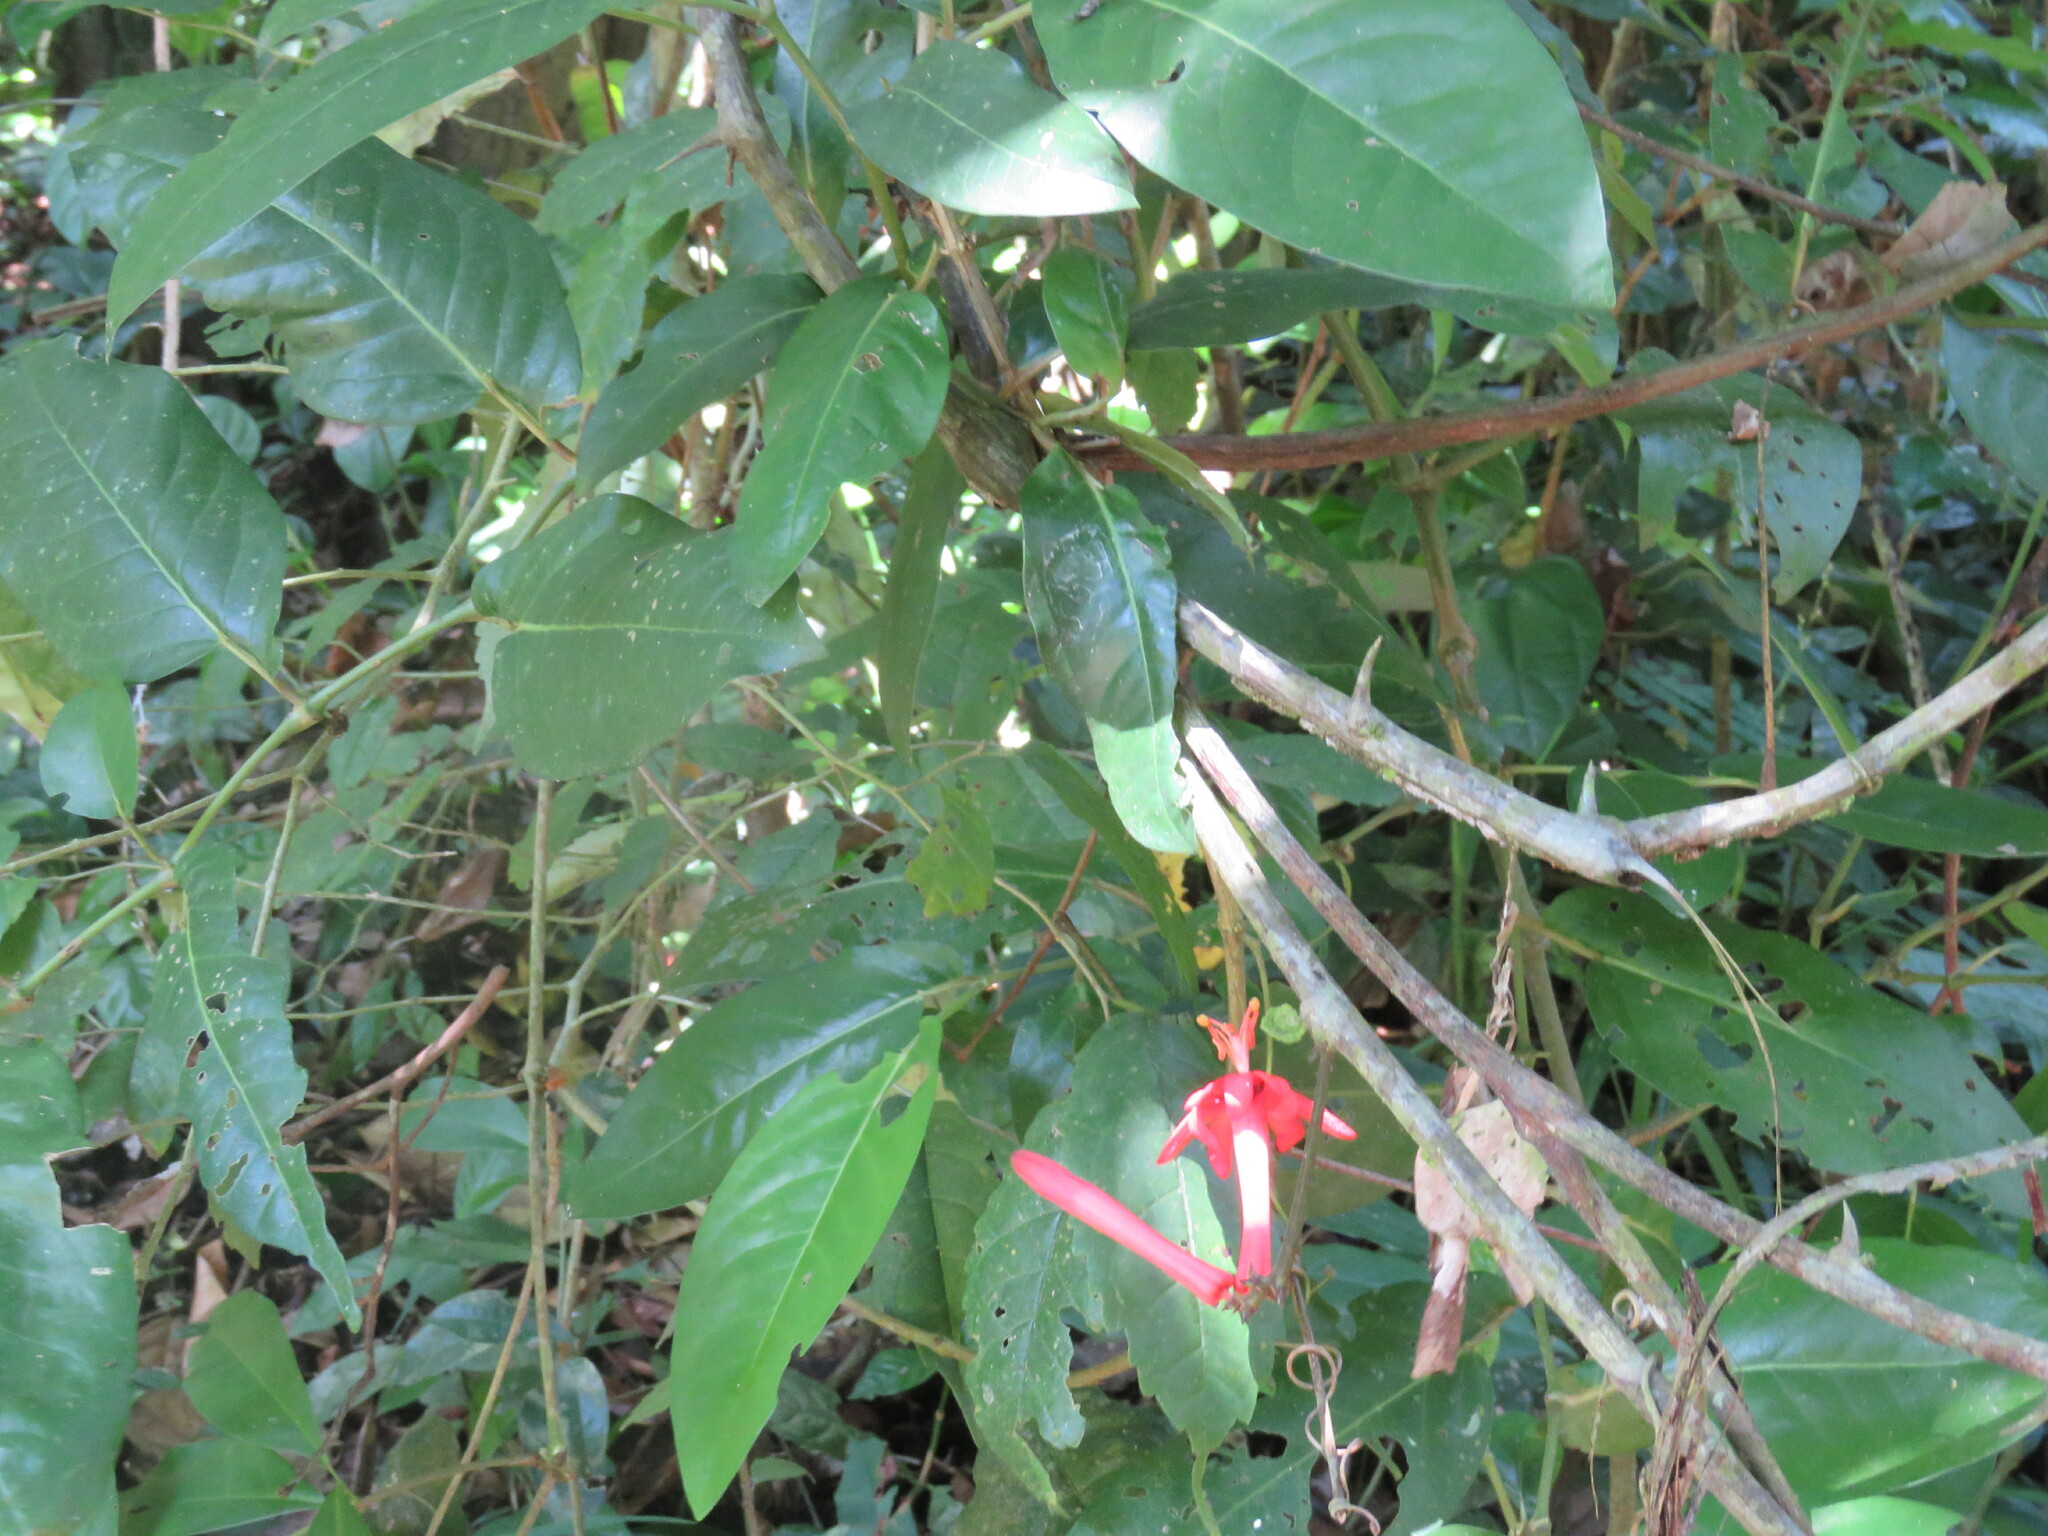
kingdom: Plantae
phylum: Tracheophyta
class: Magnoliopsida
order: Malpighiales
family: Passifloraceae
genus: Passiflora
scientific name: Passiflora rusbyi
